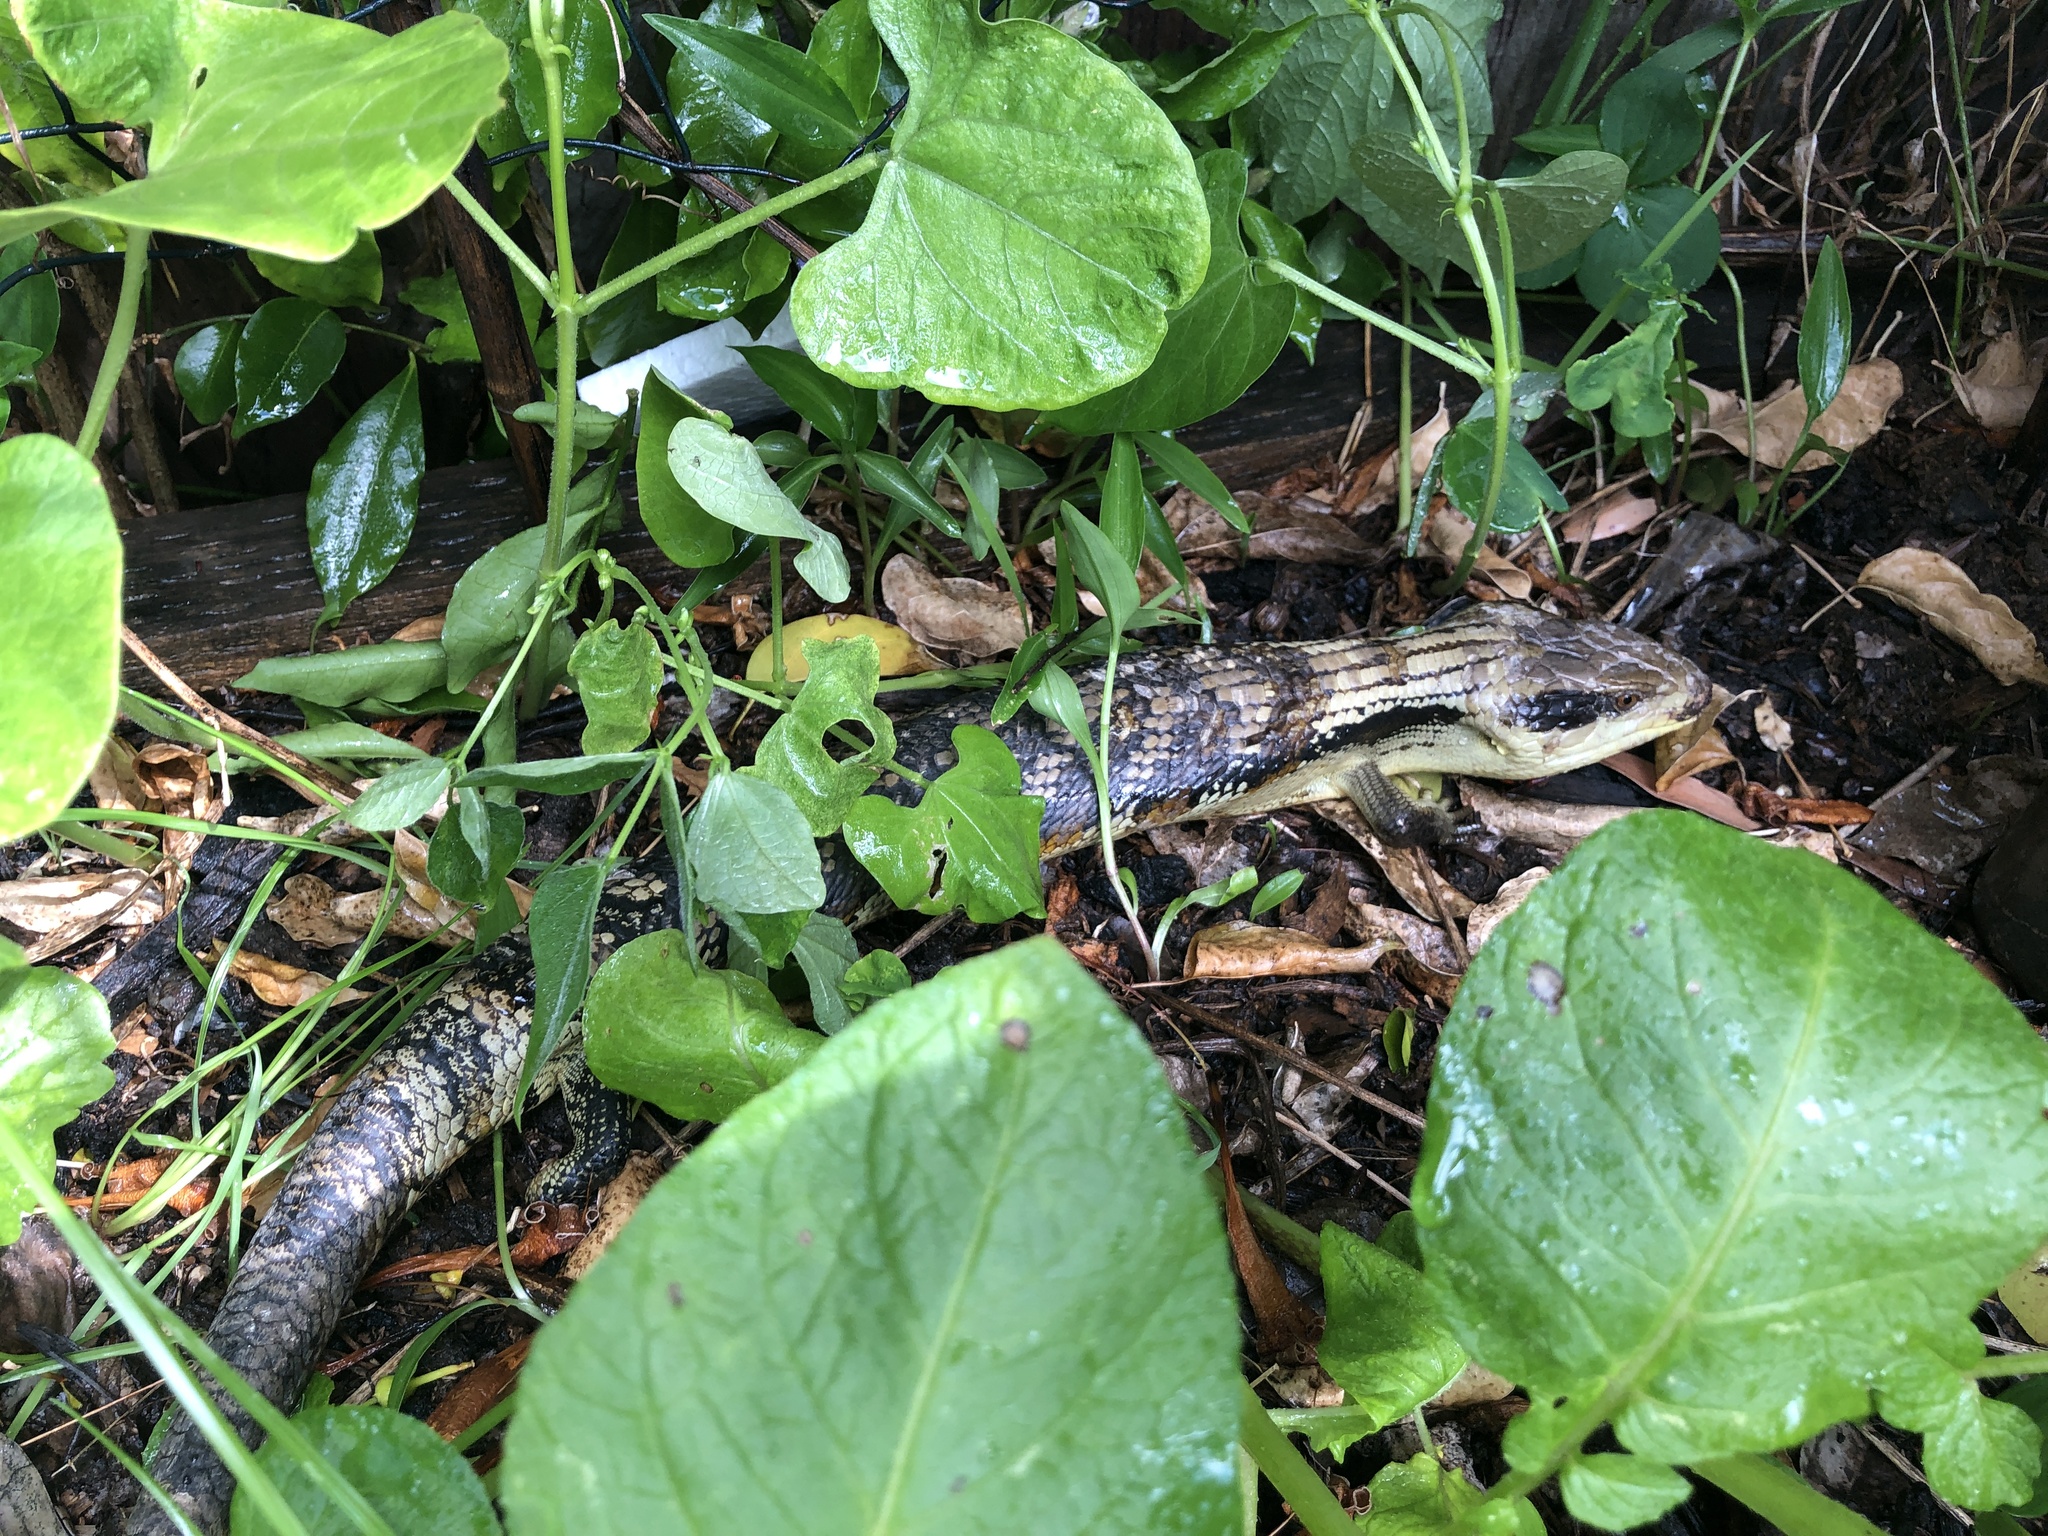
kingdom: Animalia
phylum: Chordata
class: Squamata
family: Scincidae
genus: Tiliqua
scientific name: Tiliqua scincoides
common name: Common bluetongue
